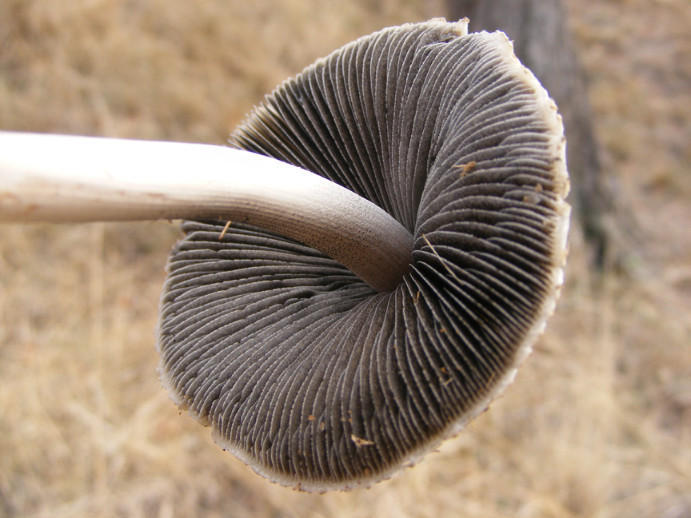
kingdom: Fungi
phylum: Basidiomycota
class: Agaricomycetes
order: Agaricales
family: Bolbitiaceae
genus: Panaeolus
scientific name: Panaeolus antillarum
